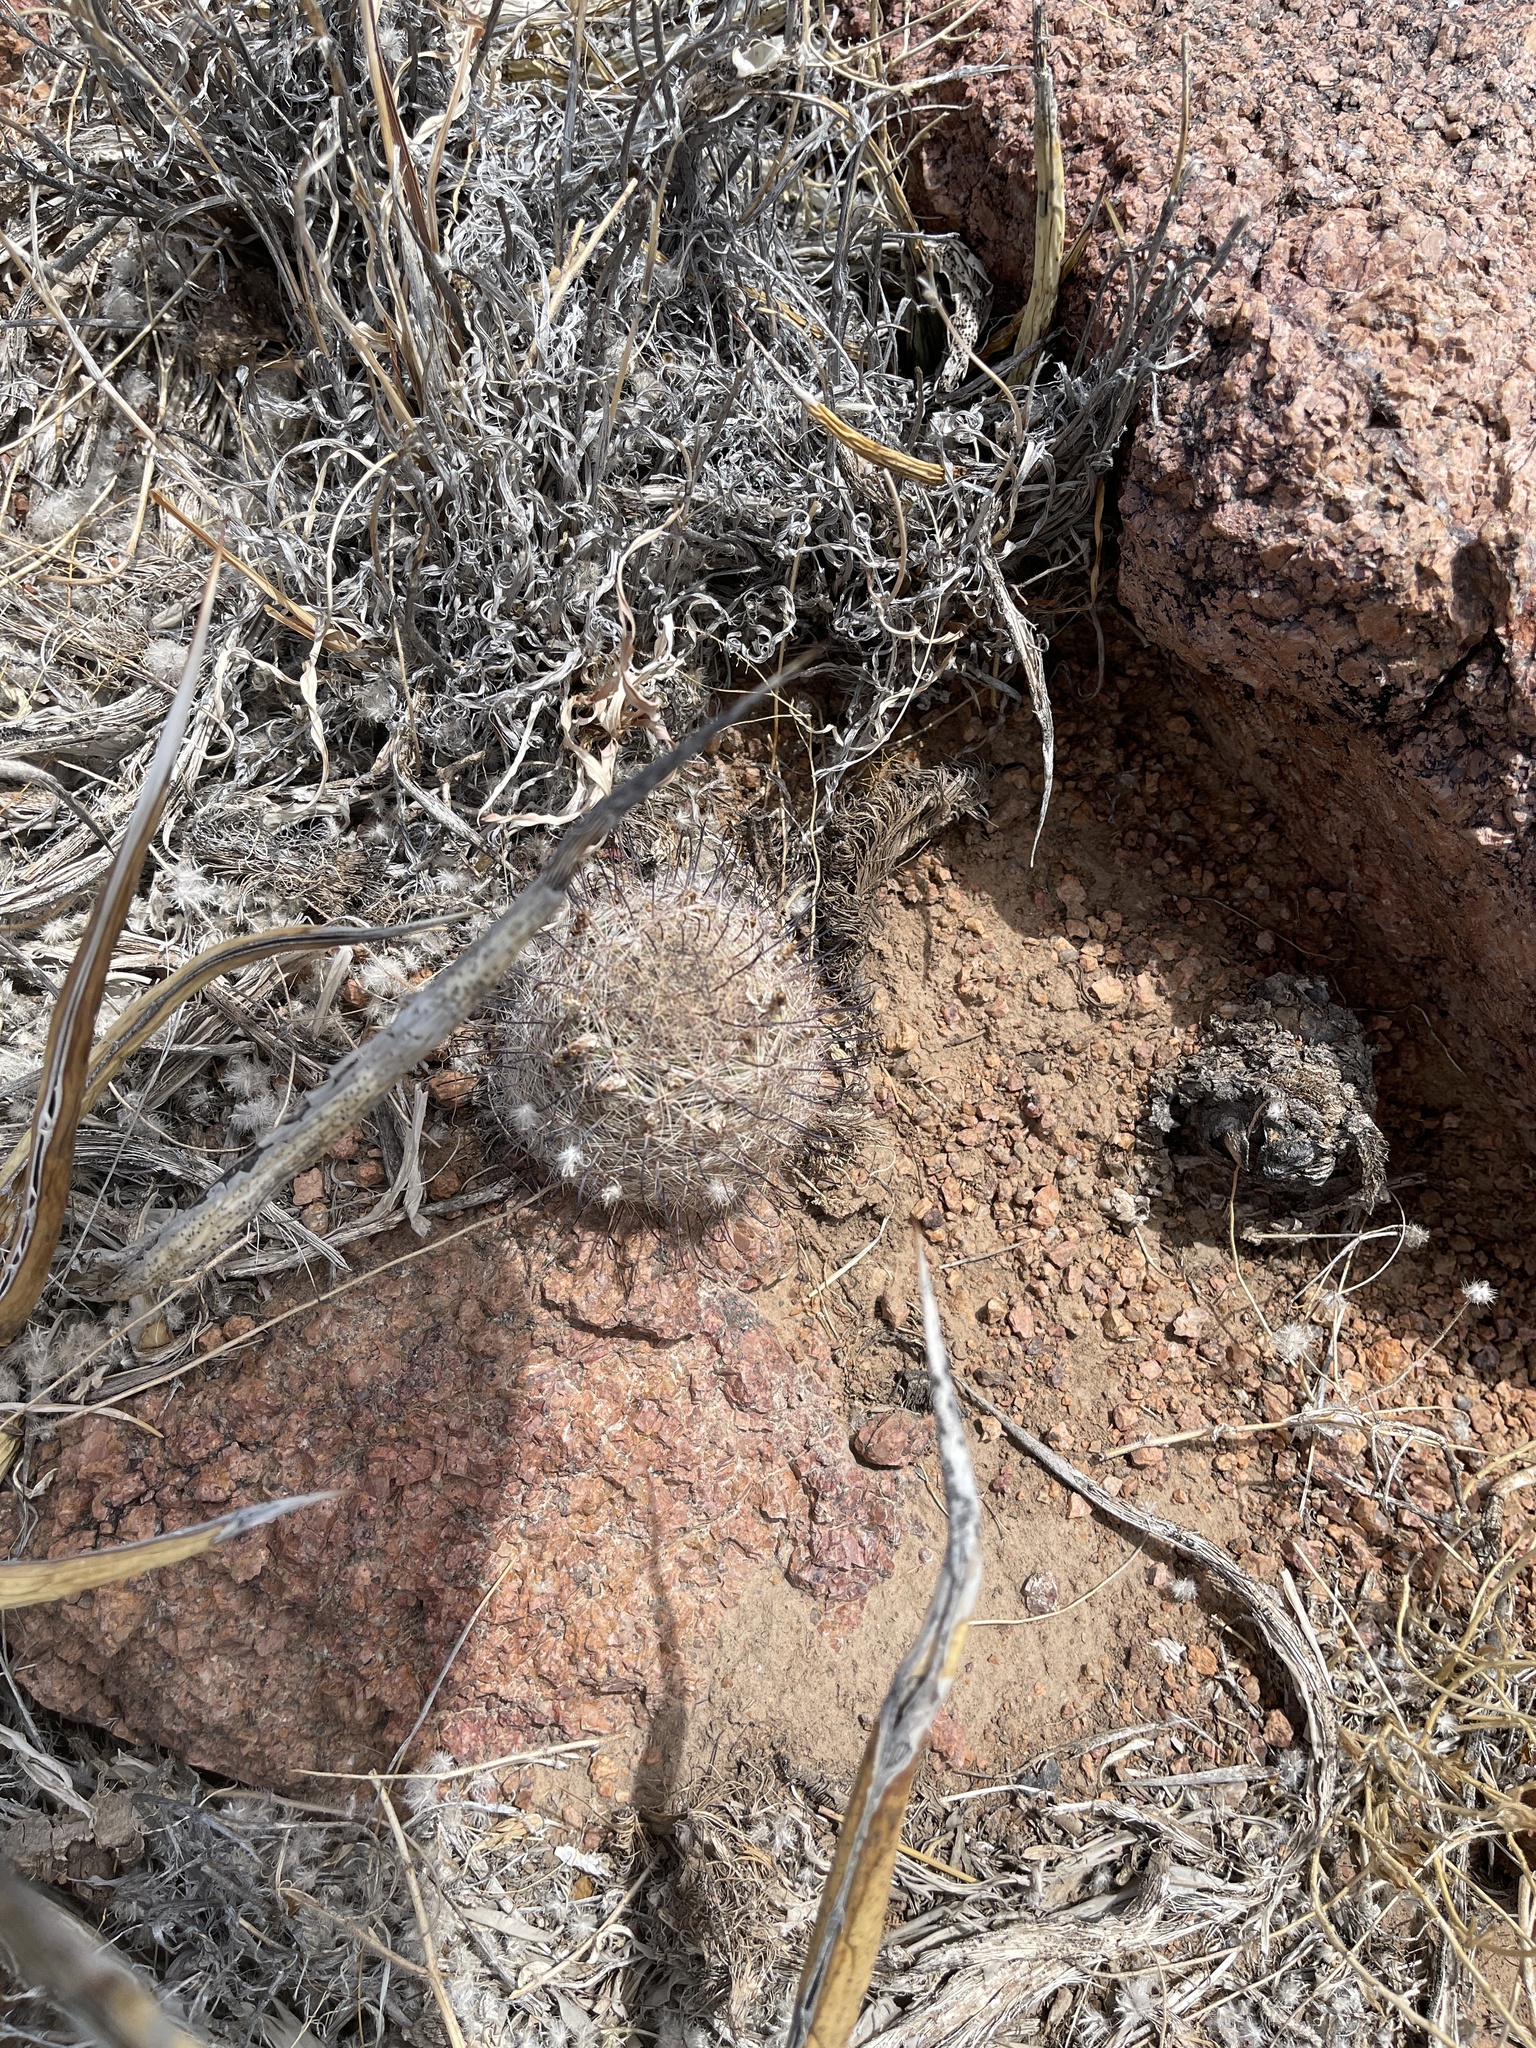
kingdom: Plantae
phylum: Tracheophyta
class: Magnoliopsida
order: Caryophyllales
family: Cactaceae
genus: Cochemiea
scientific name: Cochemiea grahamii
